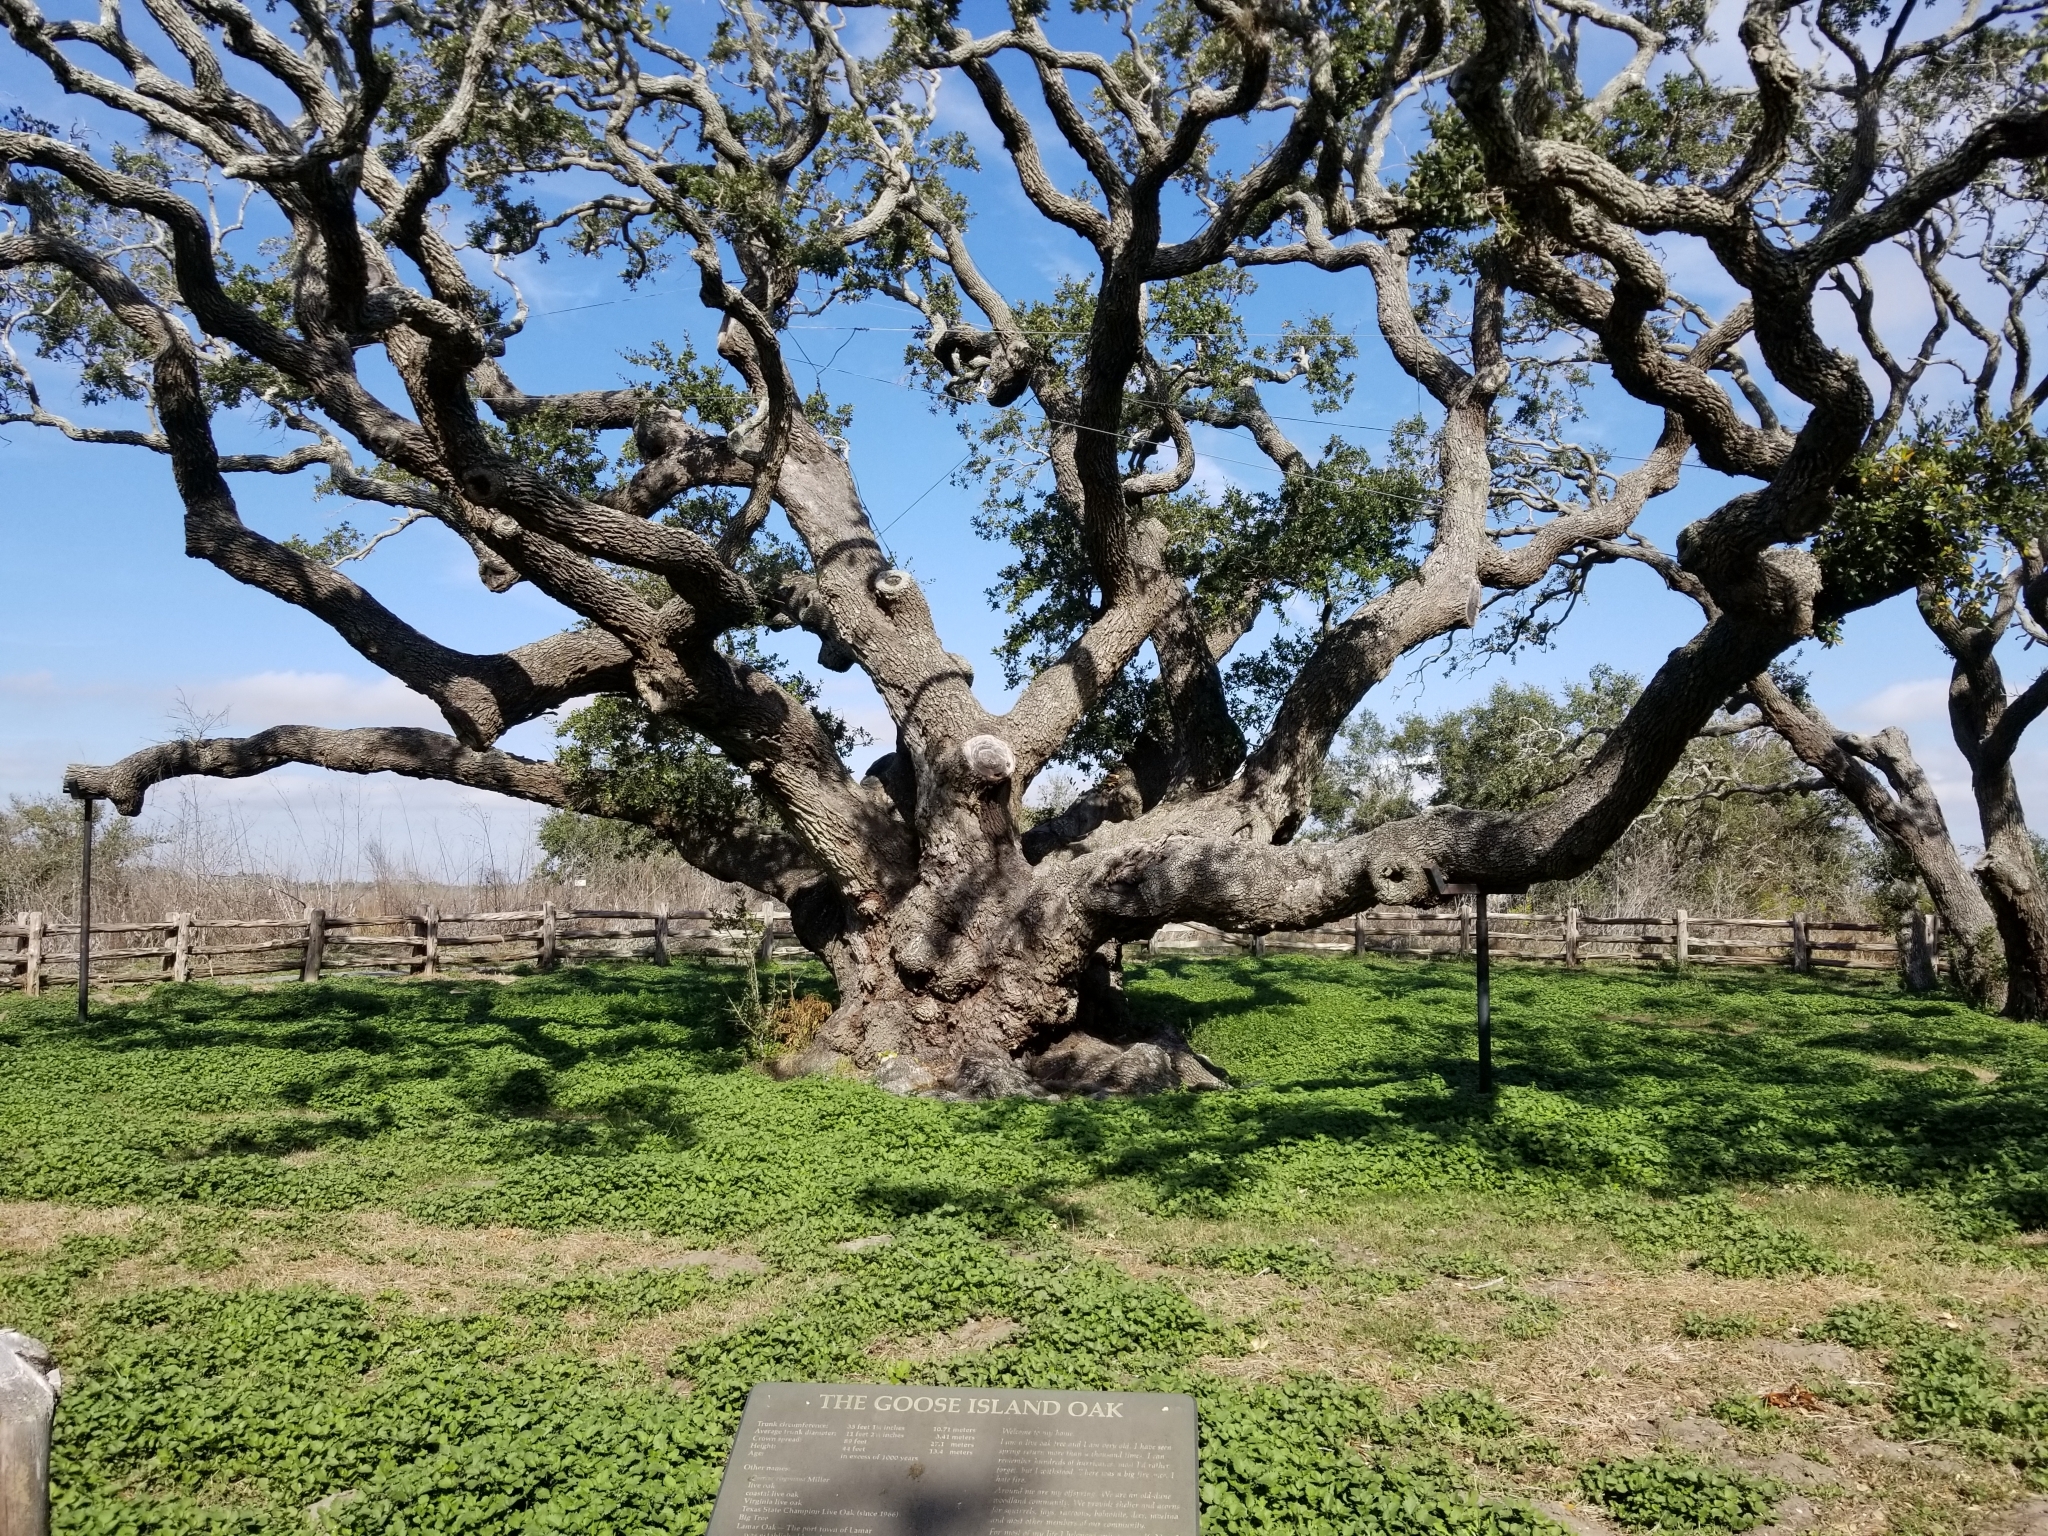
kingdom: Plantae
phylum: Tracheophyta
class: Magnoliopsida
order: Fagales
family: Fagaceae
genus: Quercus
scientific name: Quercus virginiana
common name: Southern live oak
